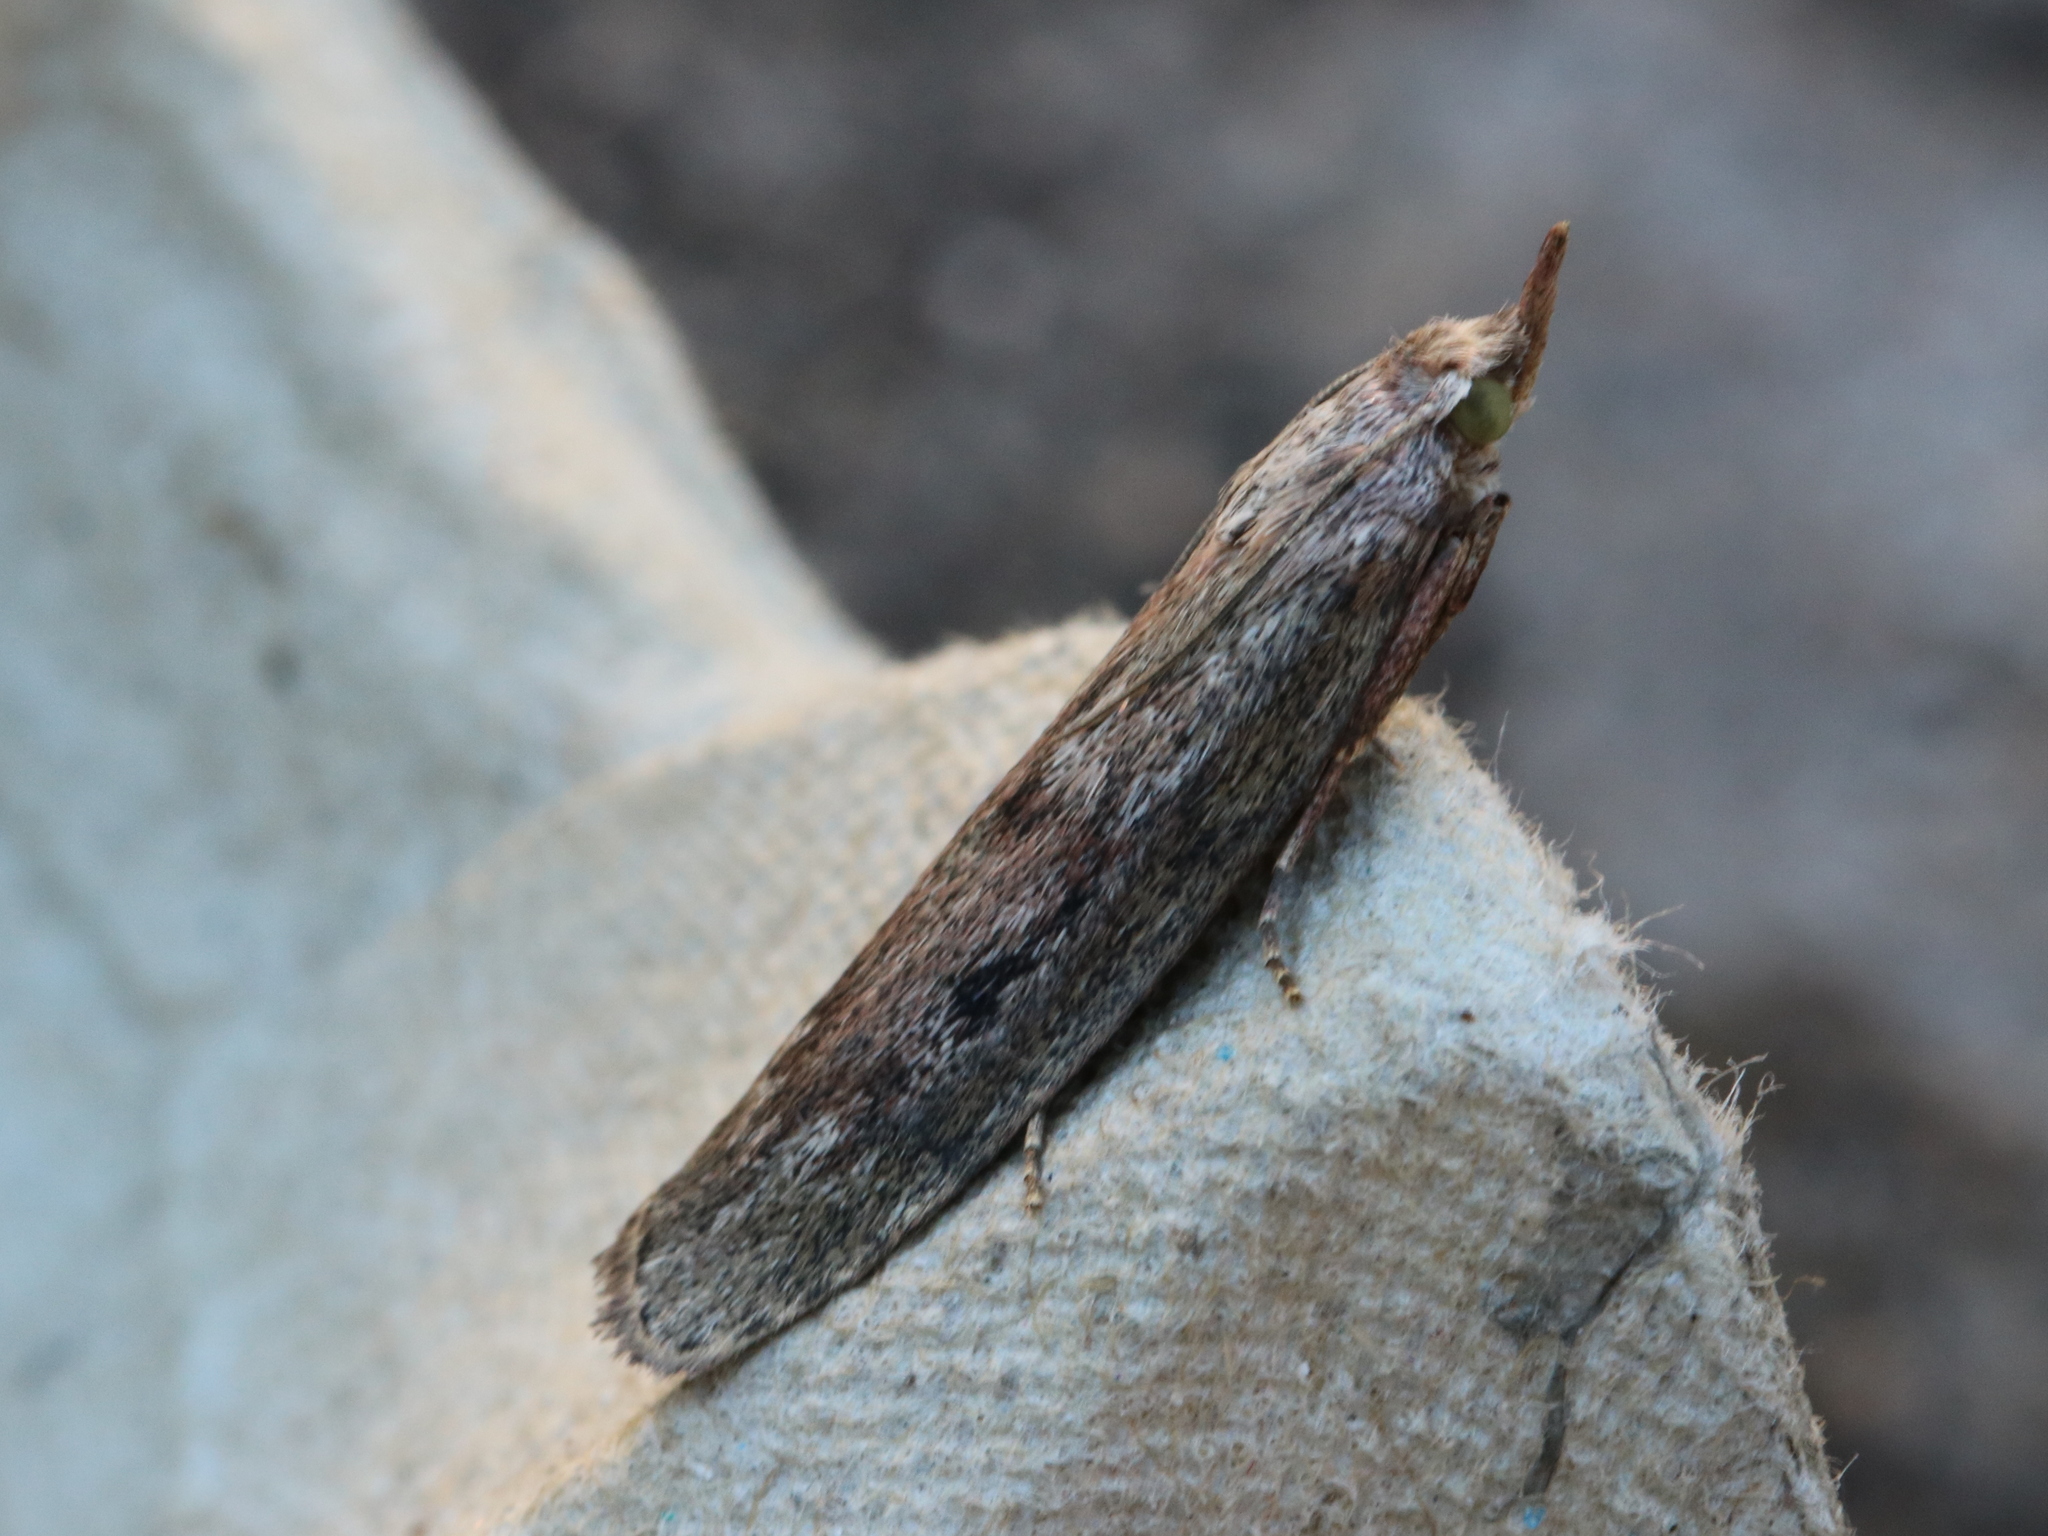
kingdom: Animalia
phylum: Arthropoda
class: Insecta
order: Lepidoptera
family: Pyralidae
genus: Aphomia
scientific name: Aphomia sociella
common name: Bee moth
